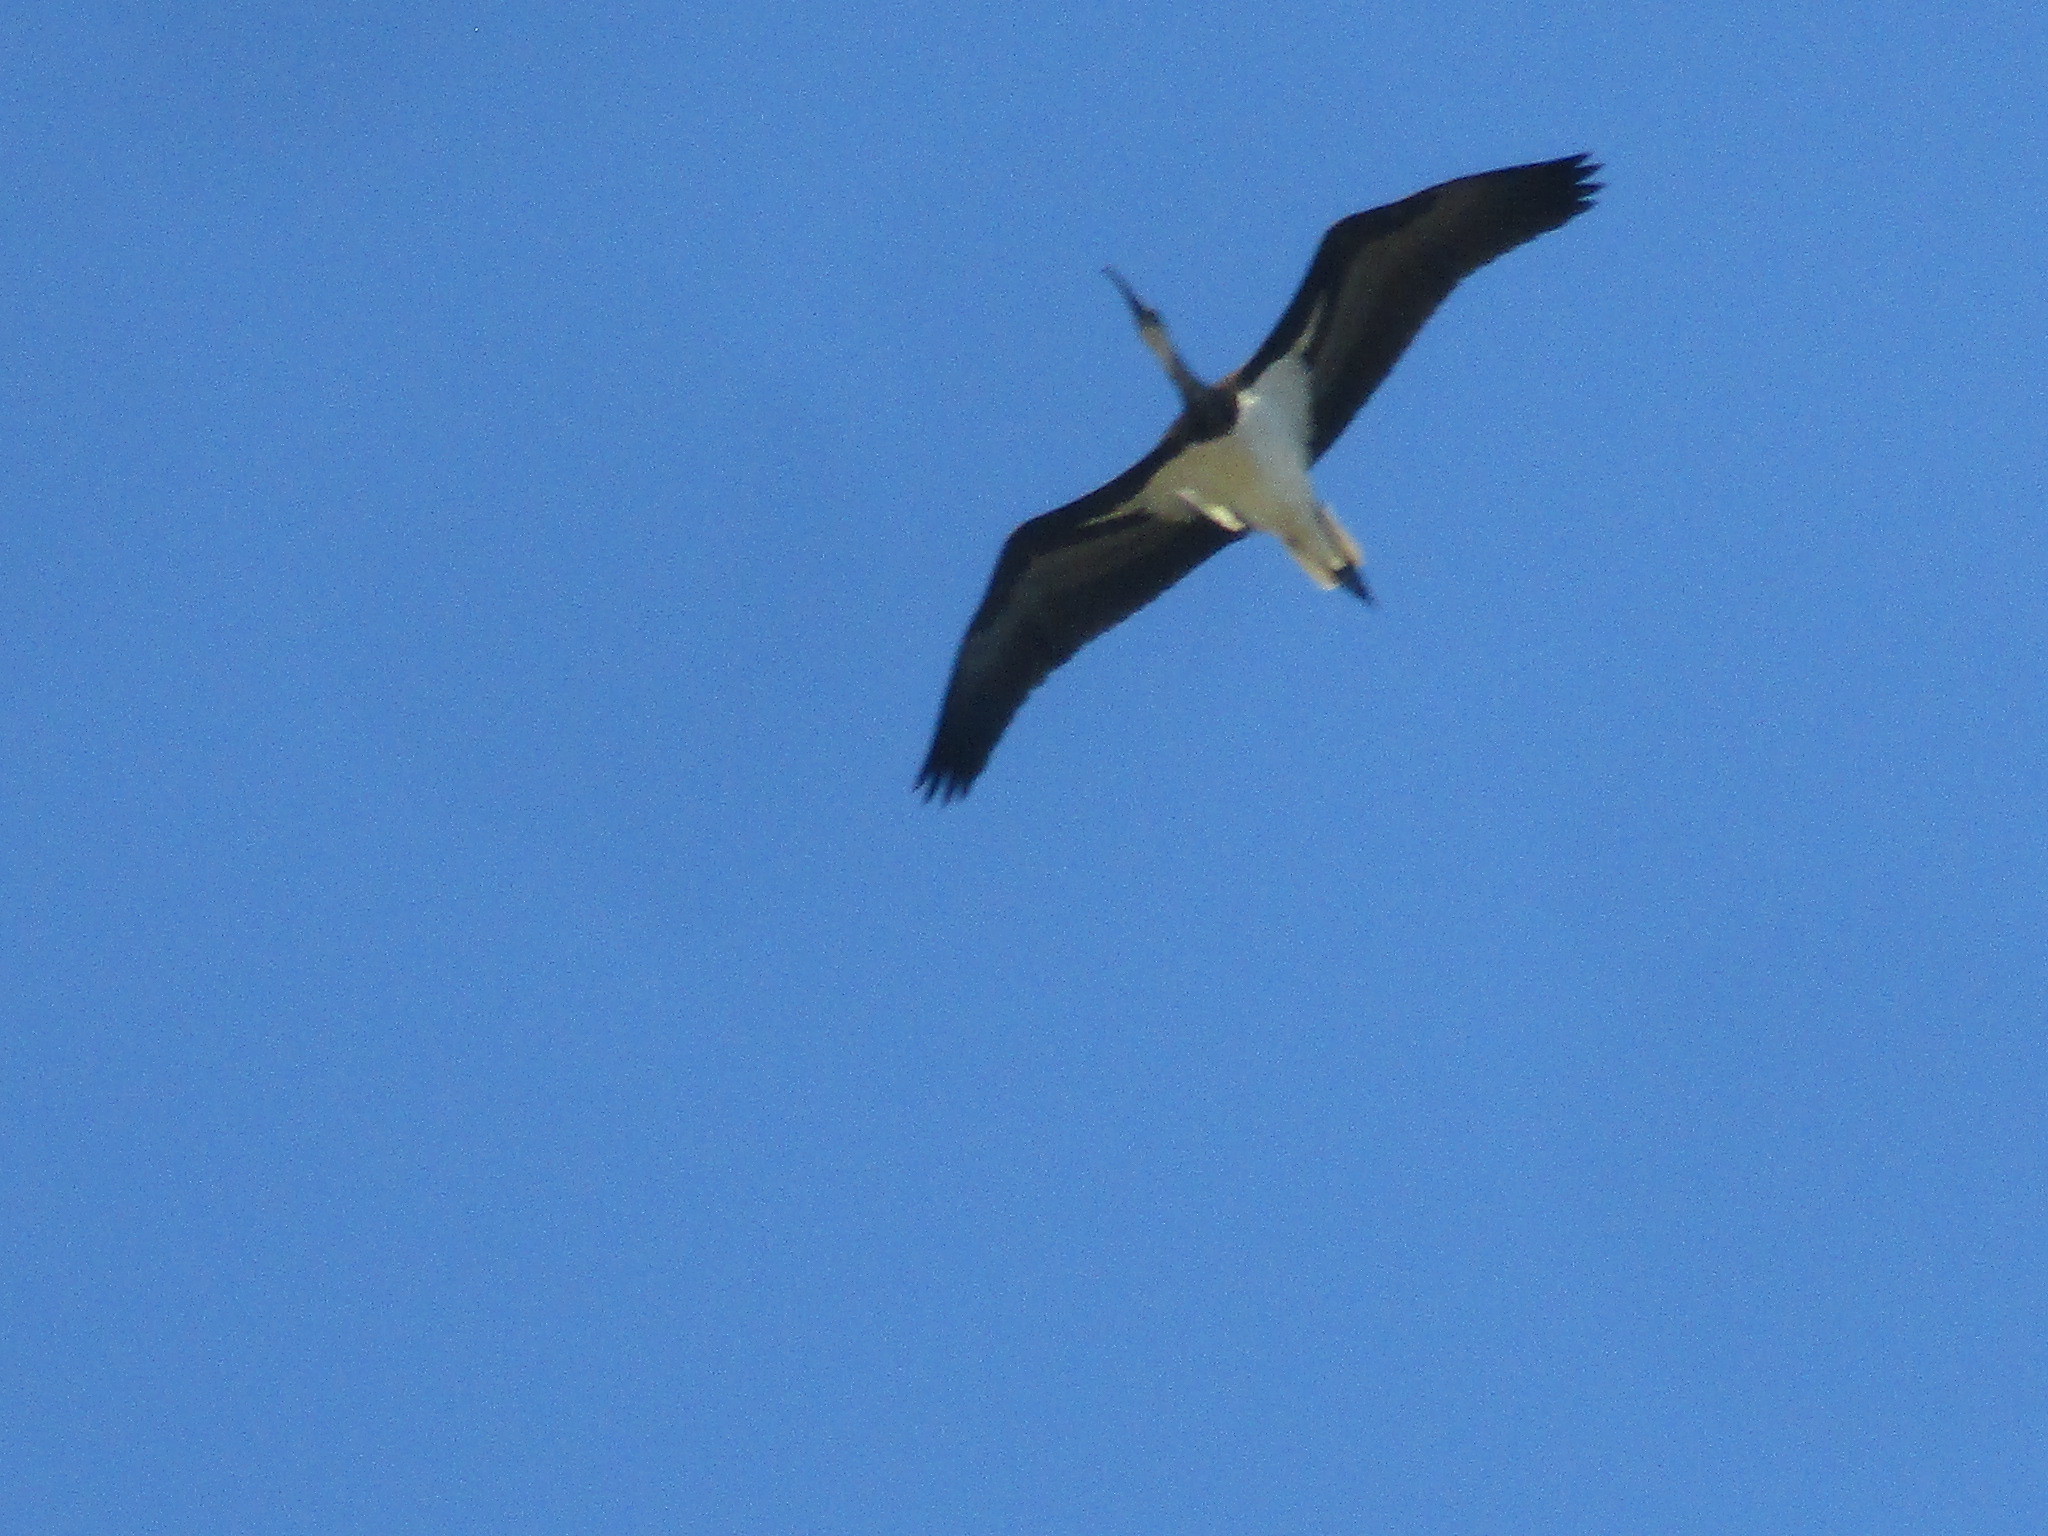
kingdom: Animalia
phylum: Chordata
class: Aves
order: Pelecaniformes
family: Threskiornithidae
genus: Threskiornis
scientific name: Threskiornis spinicollis
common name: Straw-necked ibis
